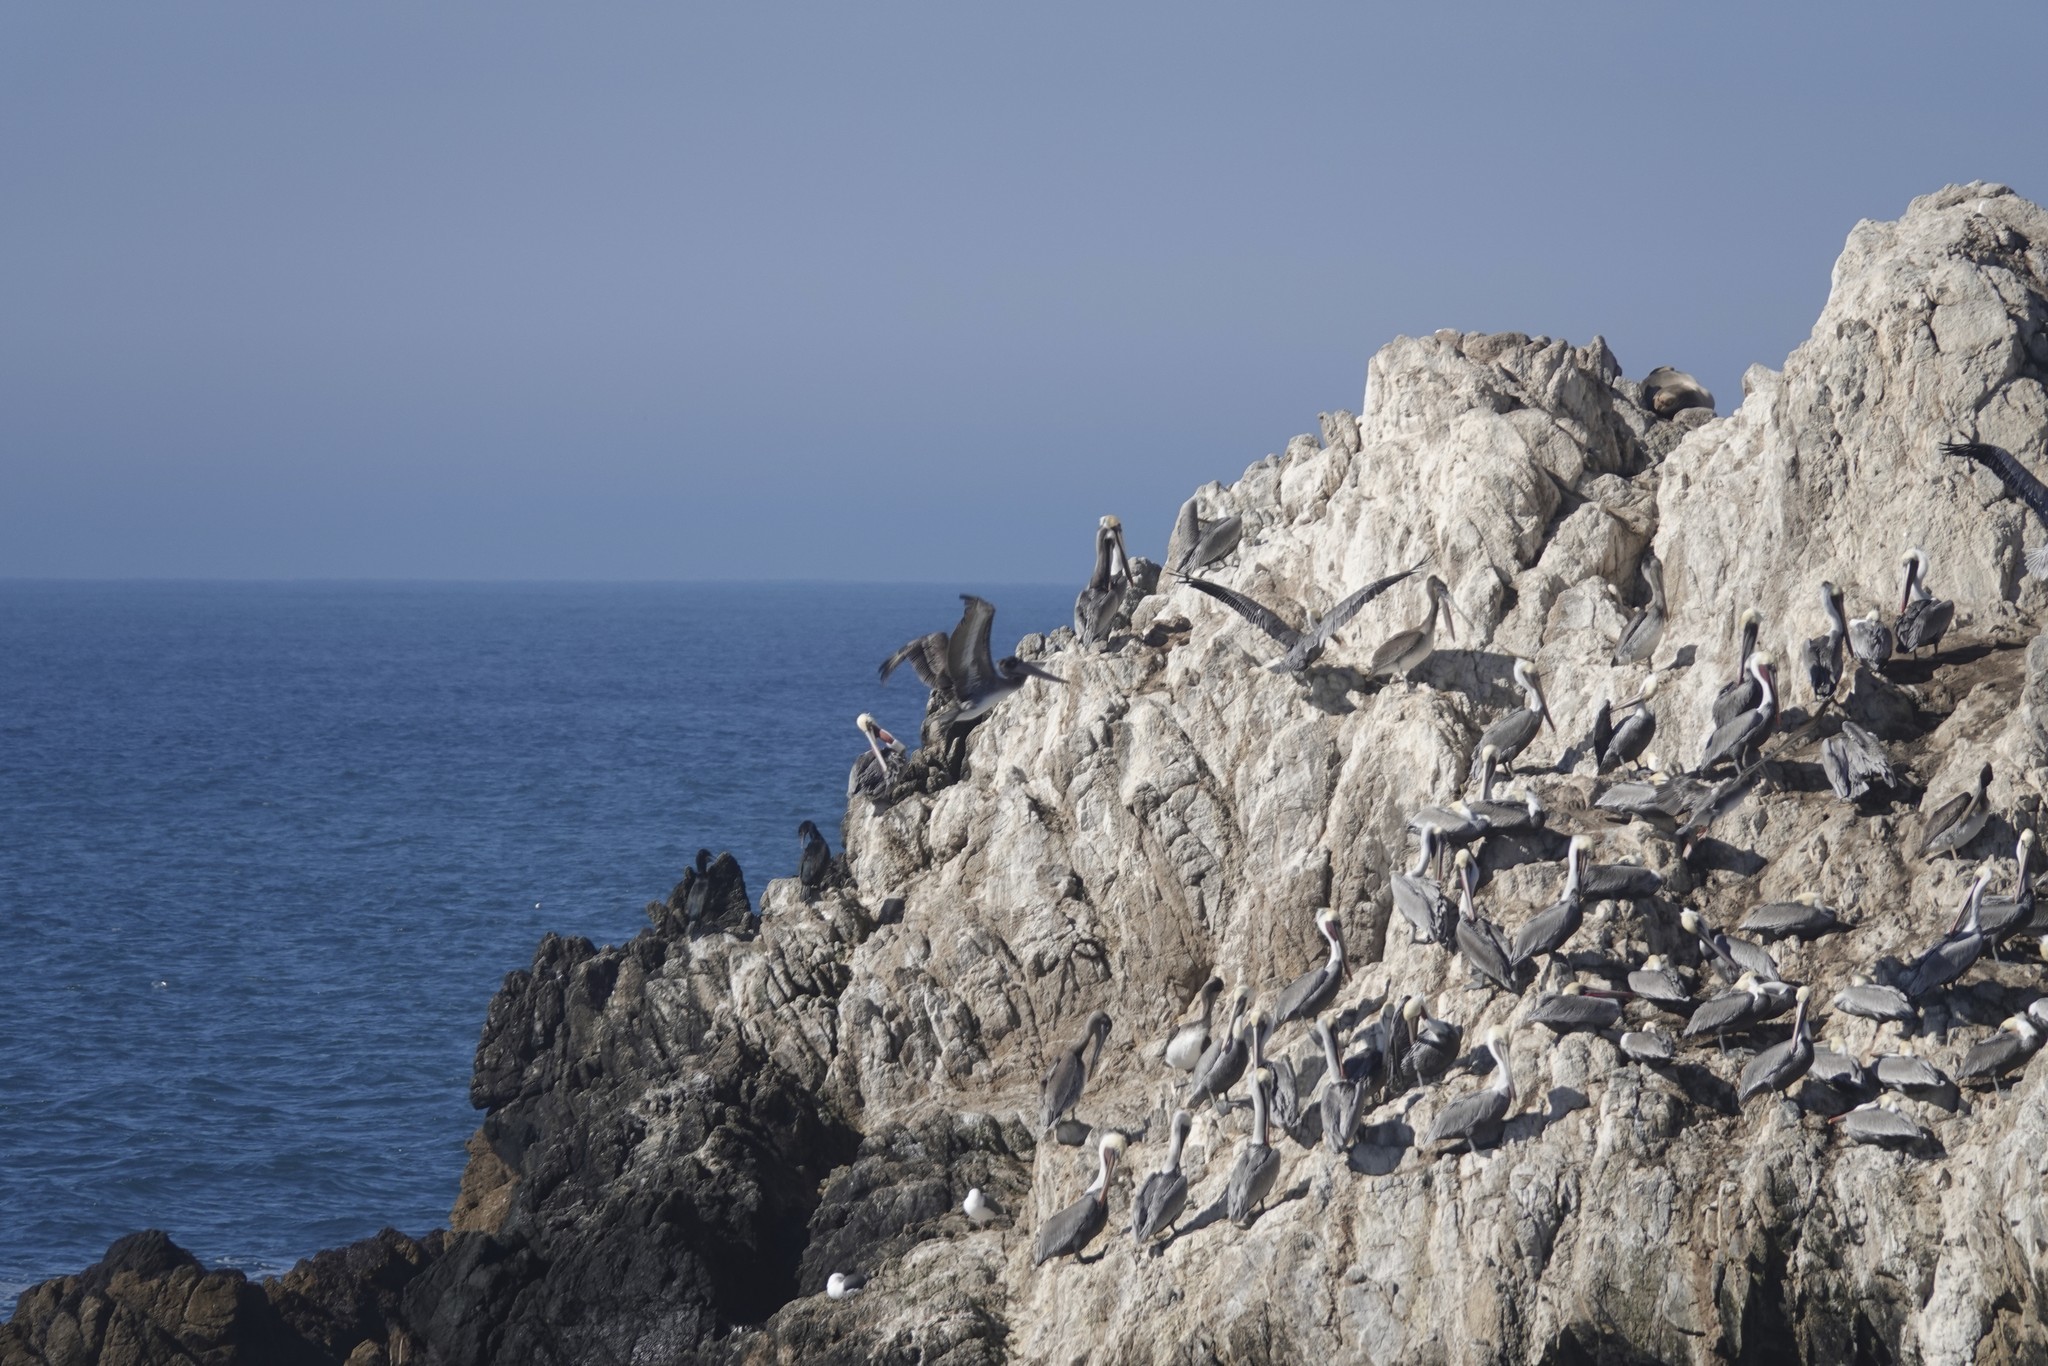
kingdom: Animalia
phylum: Chordata
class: Aves
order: Pelecaniformes
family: Pelecanidae
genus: Pelecanus
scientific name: Pelecanus occidentalis
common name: Brown pelican
